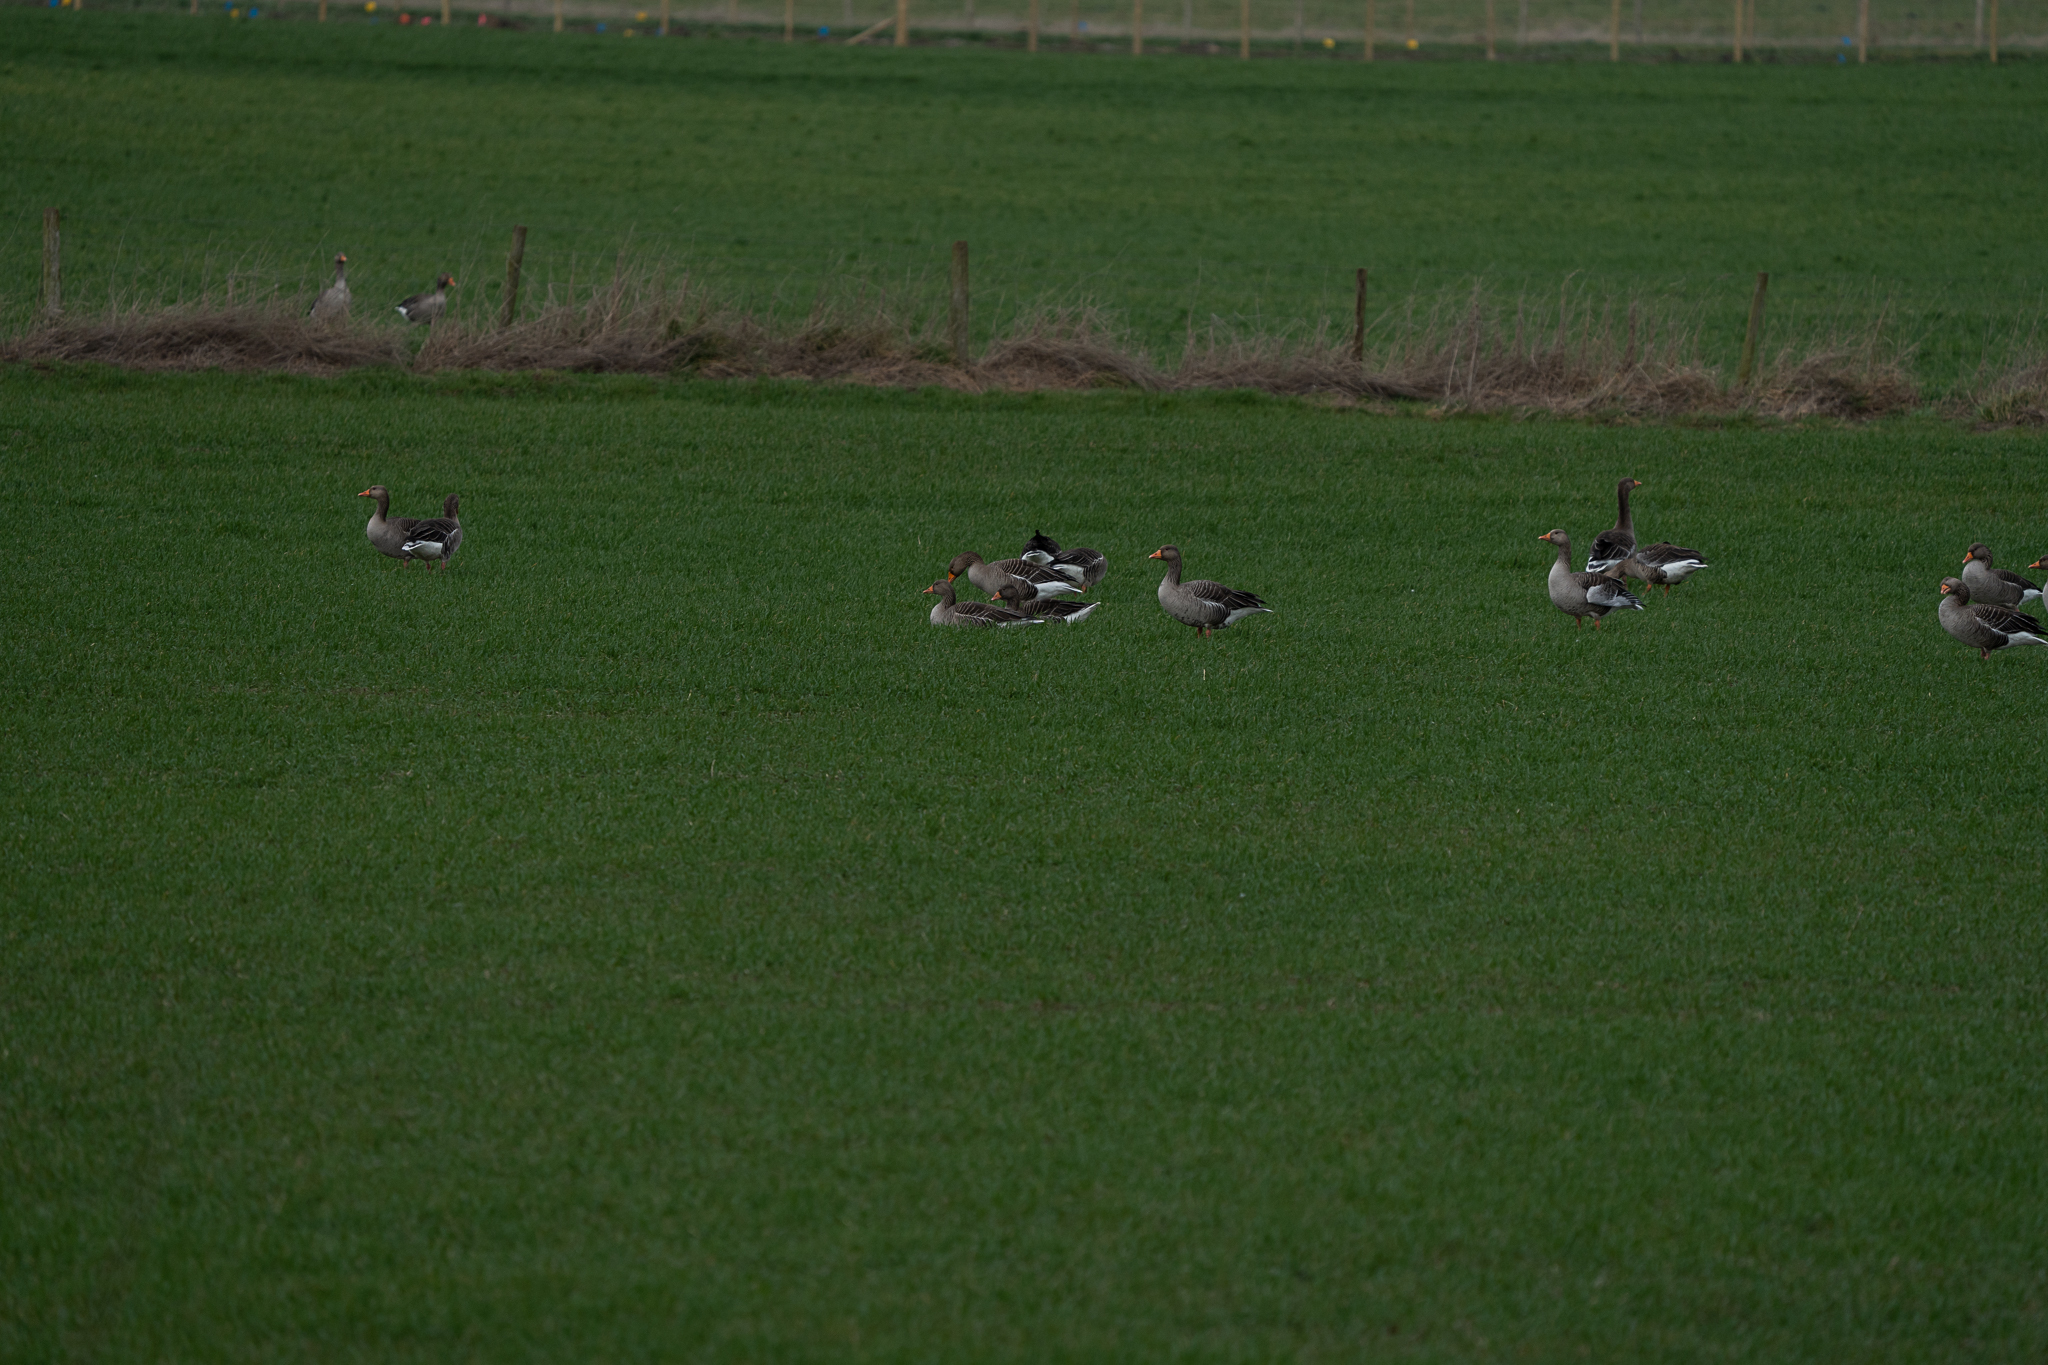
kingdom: Animalia
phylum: Chordata
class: Aves
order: Anseriformes
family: Anatidae
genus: Anser
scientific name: Anser anser
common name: Greylag goose
